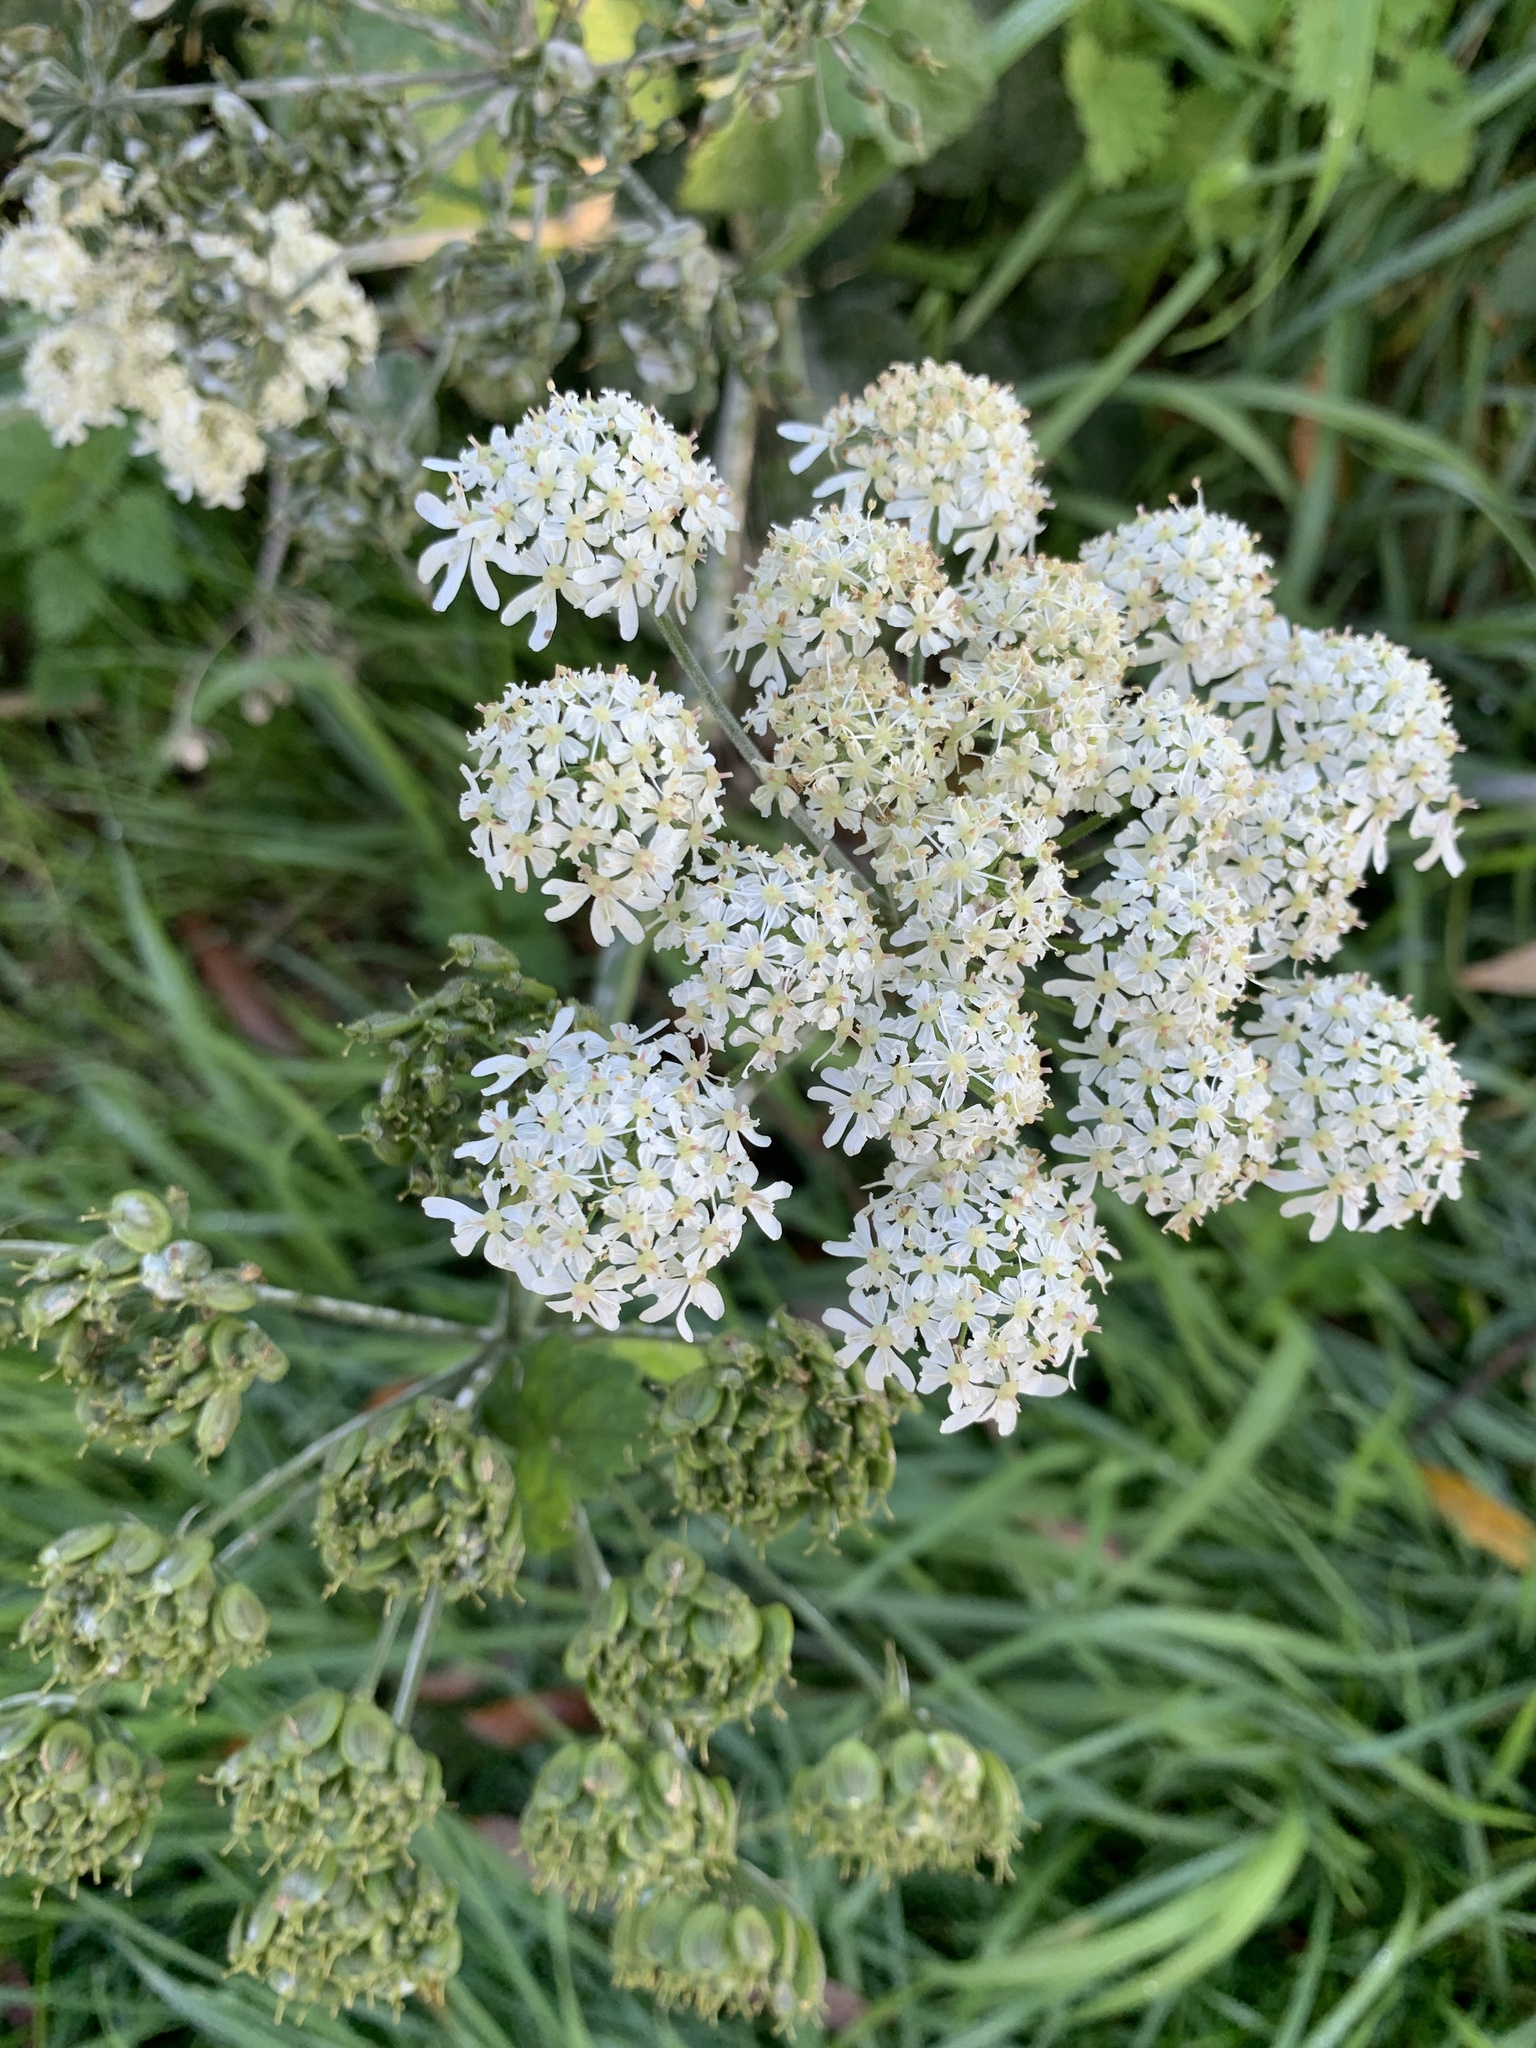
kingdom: Plantae
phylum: Tracheophyta
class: Magnoliopsida
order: Apiales
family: Apiaceae
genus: Heracleum
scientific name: Heracleum sphondylium
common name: Hogweed
